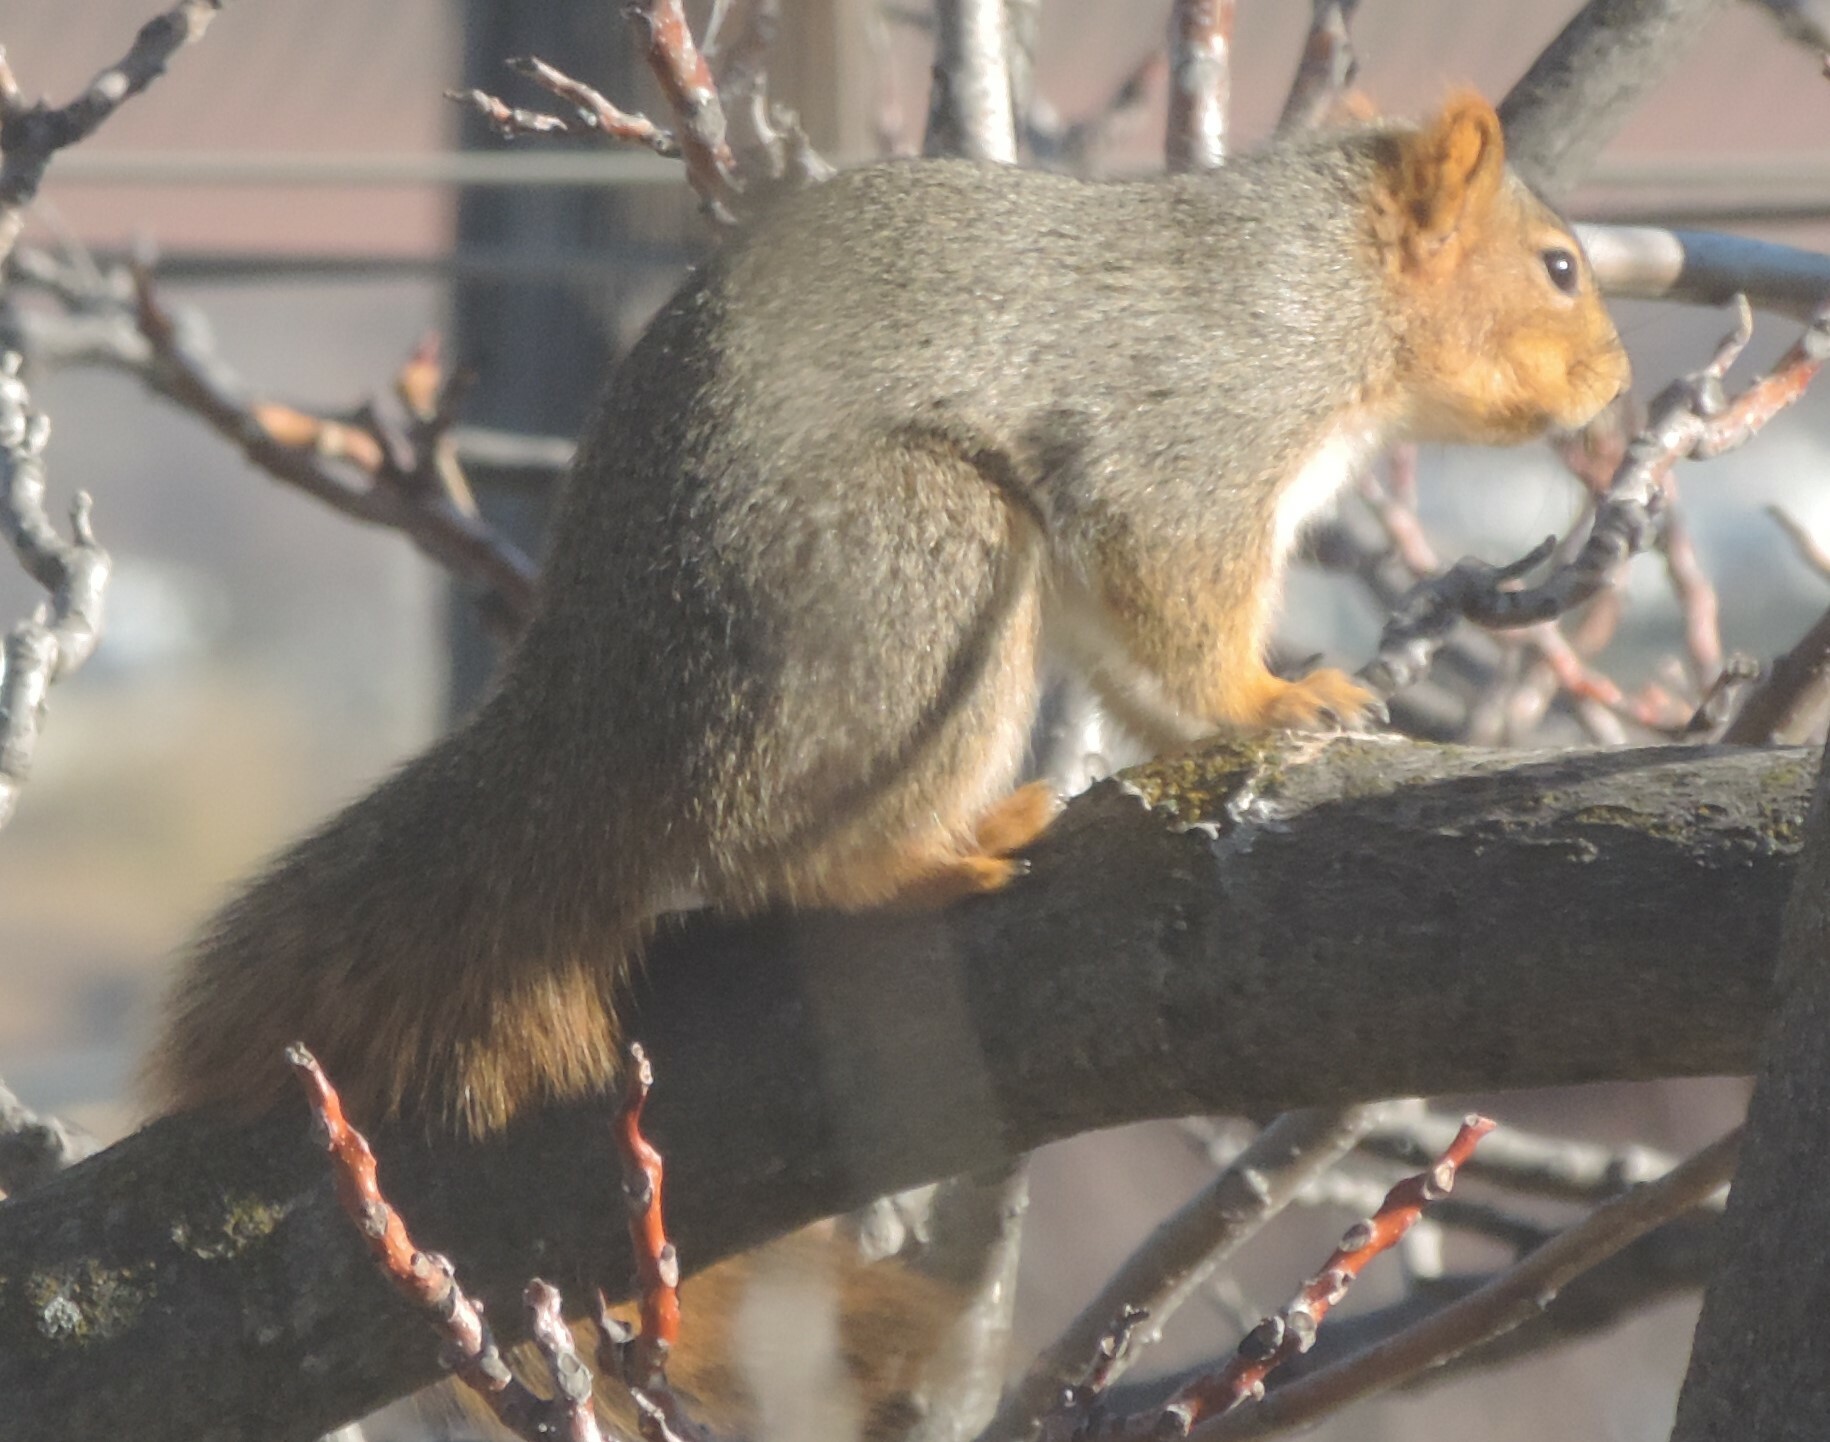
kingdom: Animalia
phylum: Chordata
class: Mammalia
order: Rodentia
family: Sciuridae
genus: Sciurus
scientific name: Sciurus niger
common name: Fox squirrel
